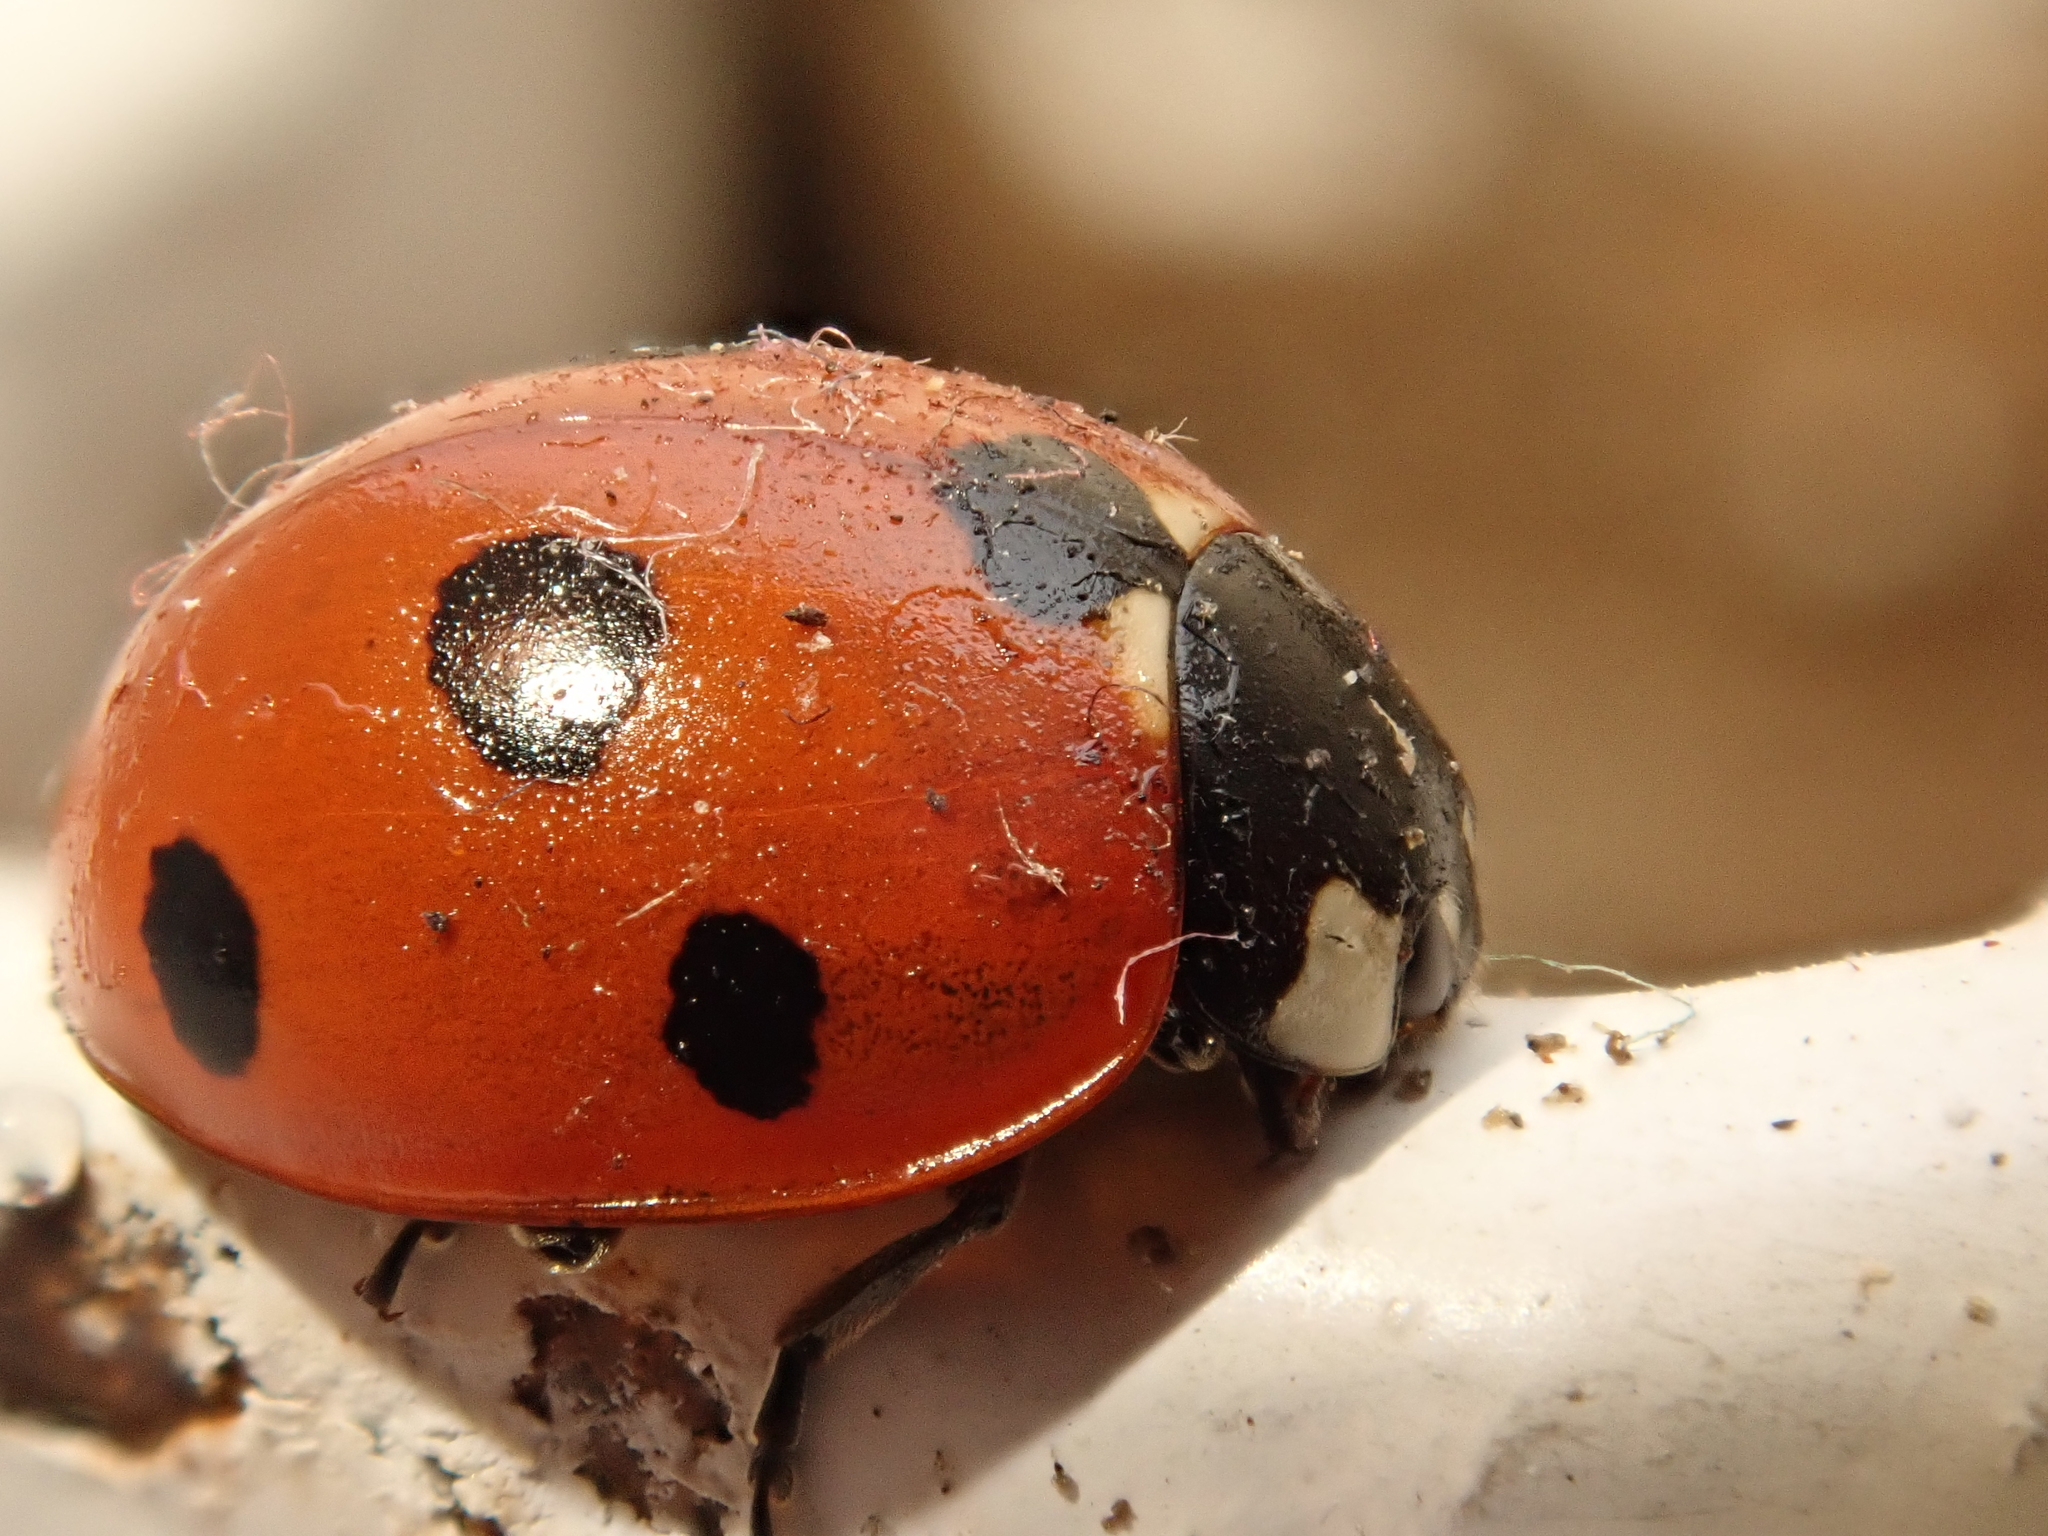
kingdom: Animalia
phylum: Arthropoda
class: Insecta
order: Coleoptera
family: Coccinellidae
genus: Coccinella
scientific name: Coccinella septempunctata
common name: Sevenspotted lady beetle
